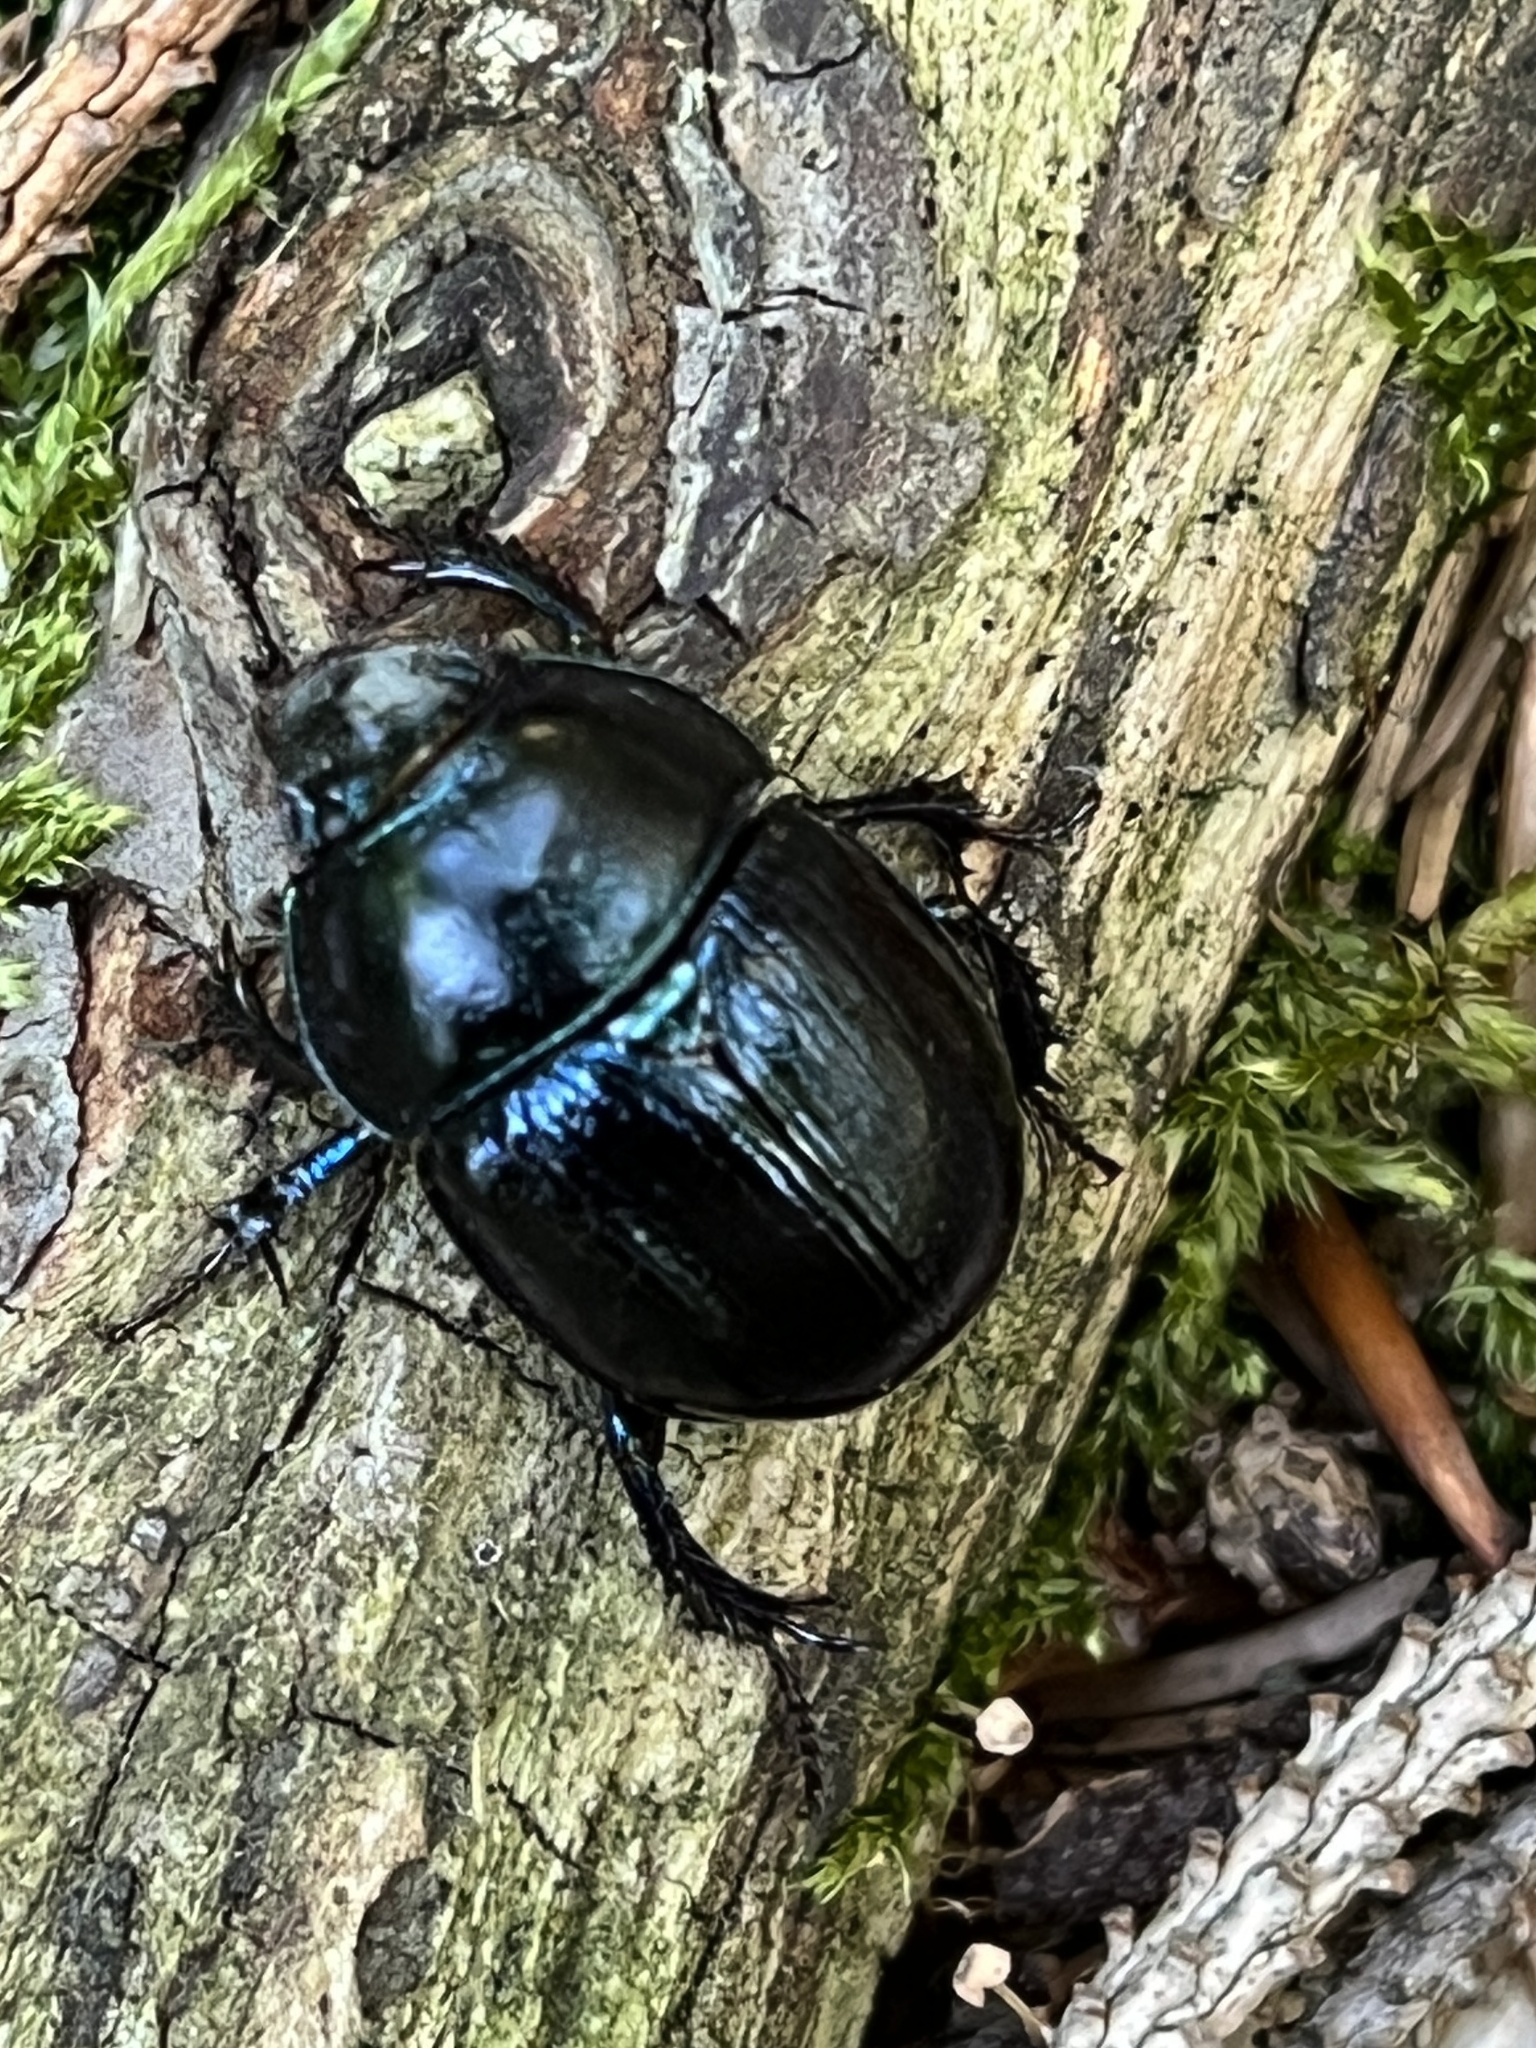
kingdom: Animalia
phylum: Arthropoda
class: Insecta
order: Coleoptera
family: Geotrupidae
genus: Anoplotrupes
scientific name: Anoplotrupes stercorosus
